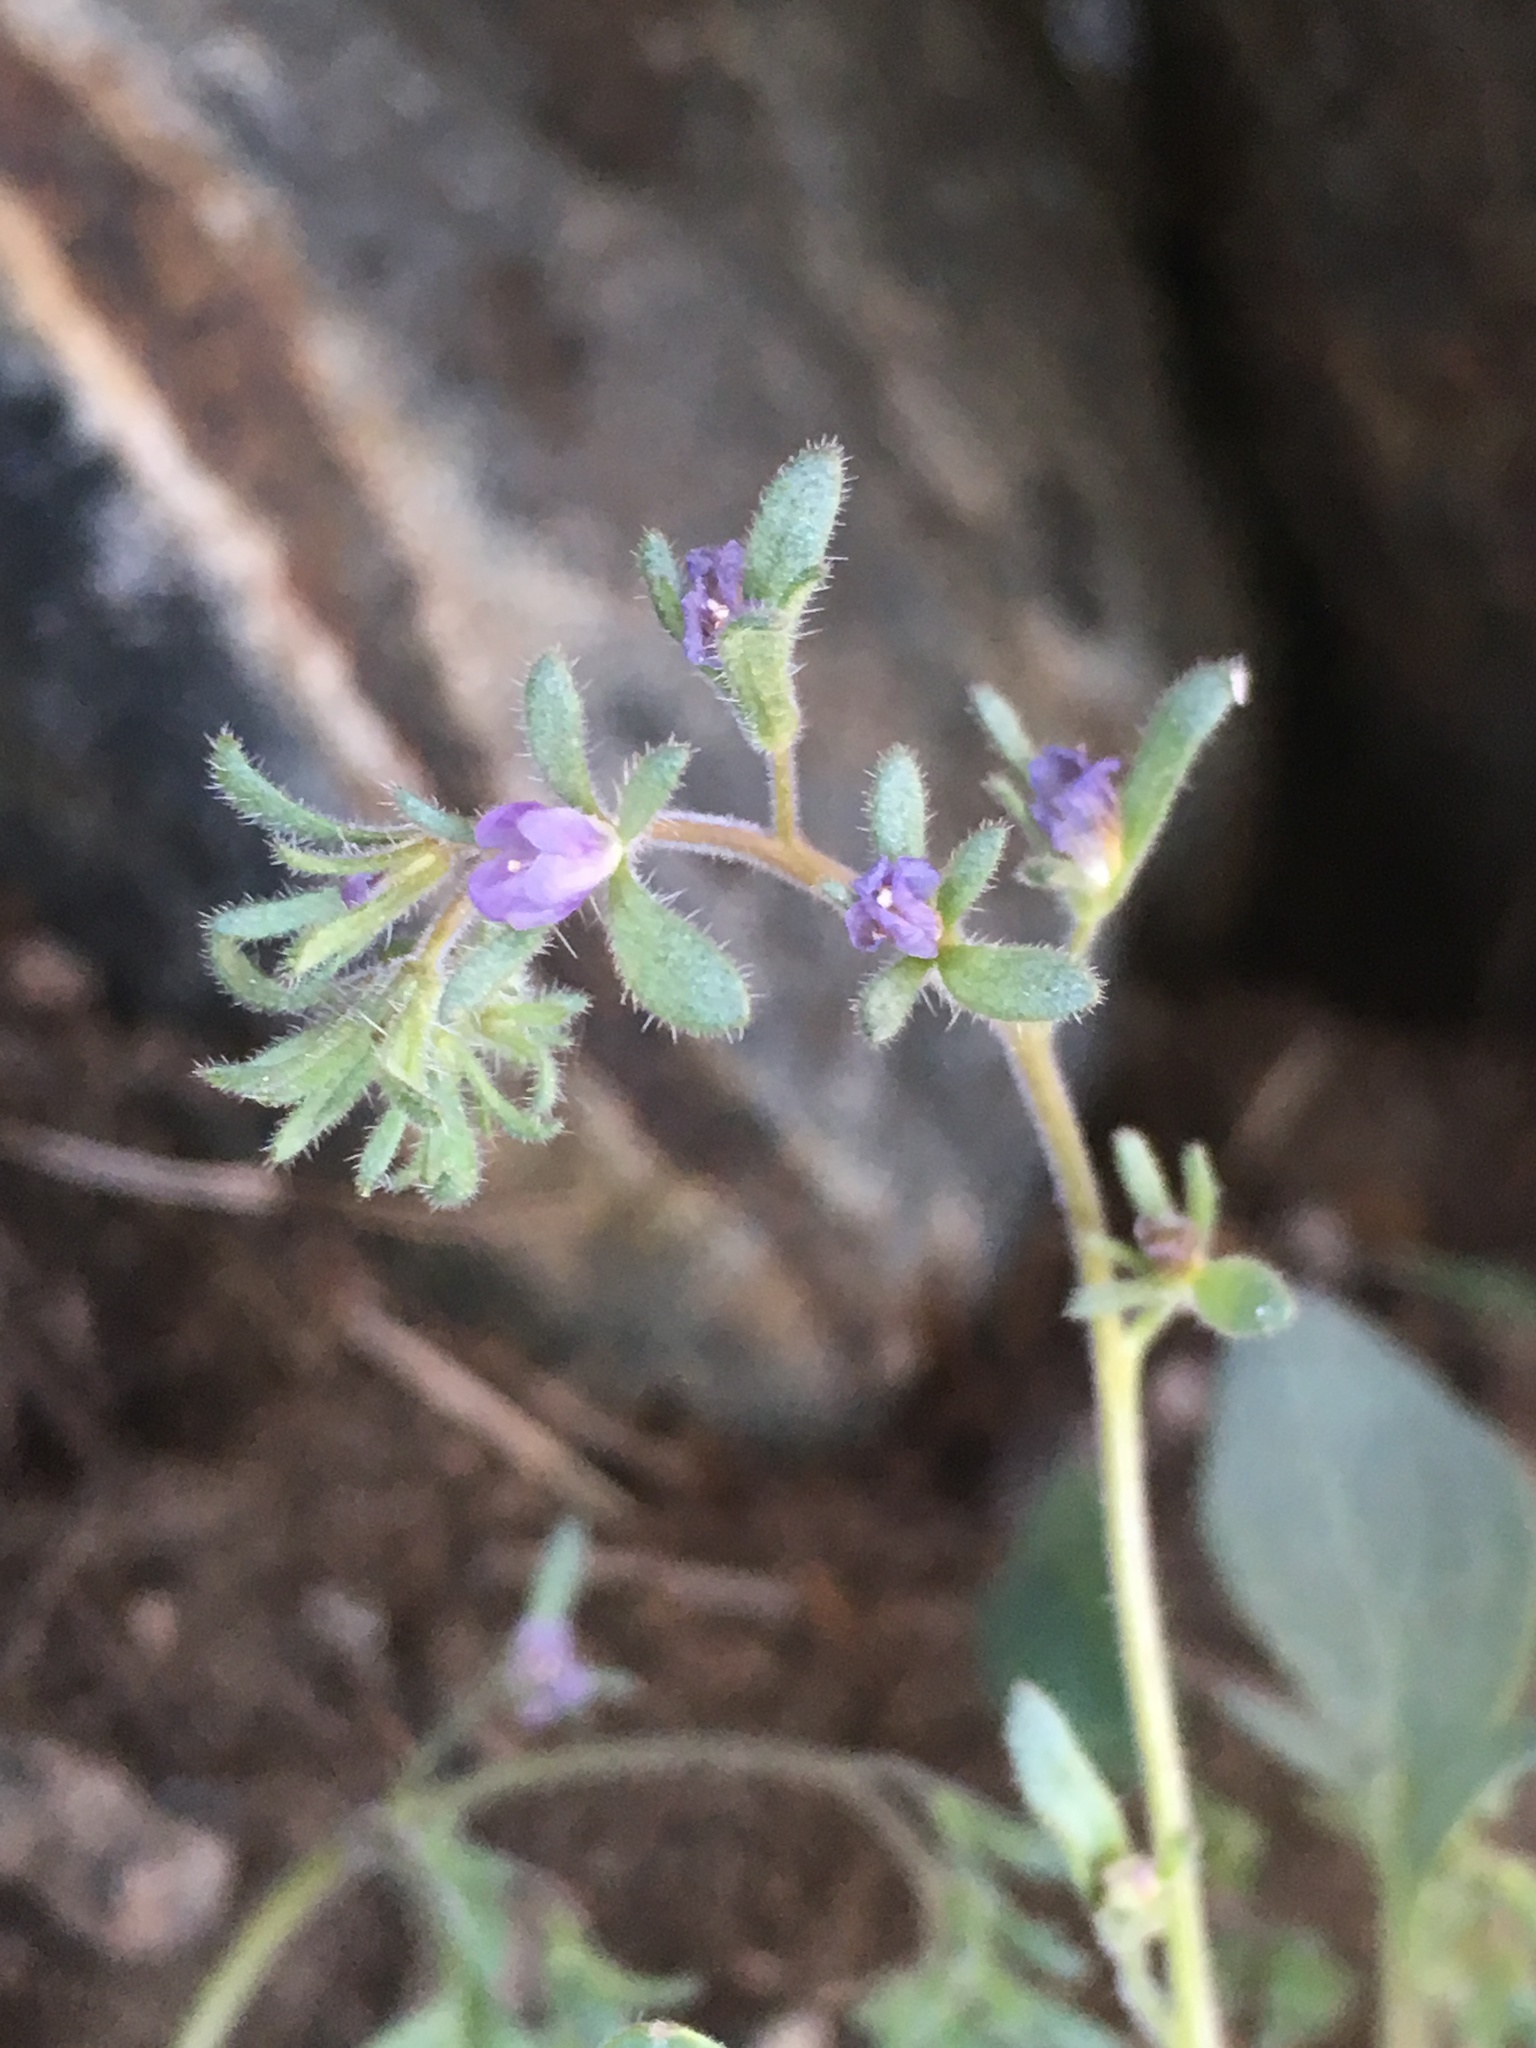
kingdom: Plantae
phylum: Tracheophyta
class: Magnoliopsida
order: Boraginales
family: Hydrophyllaceae
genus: Phacelia
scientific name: Phacelia austromontana
